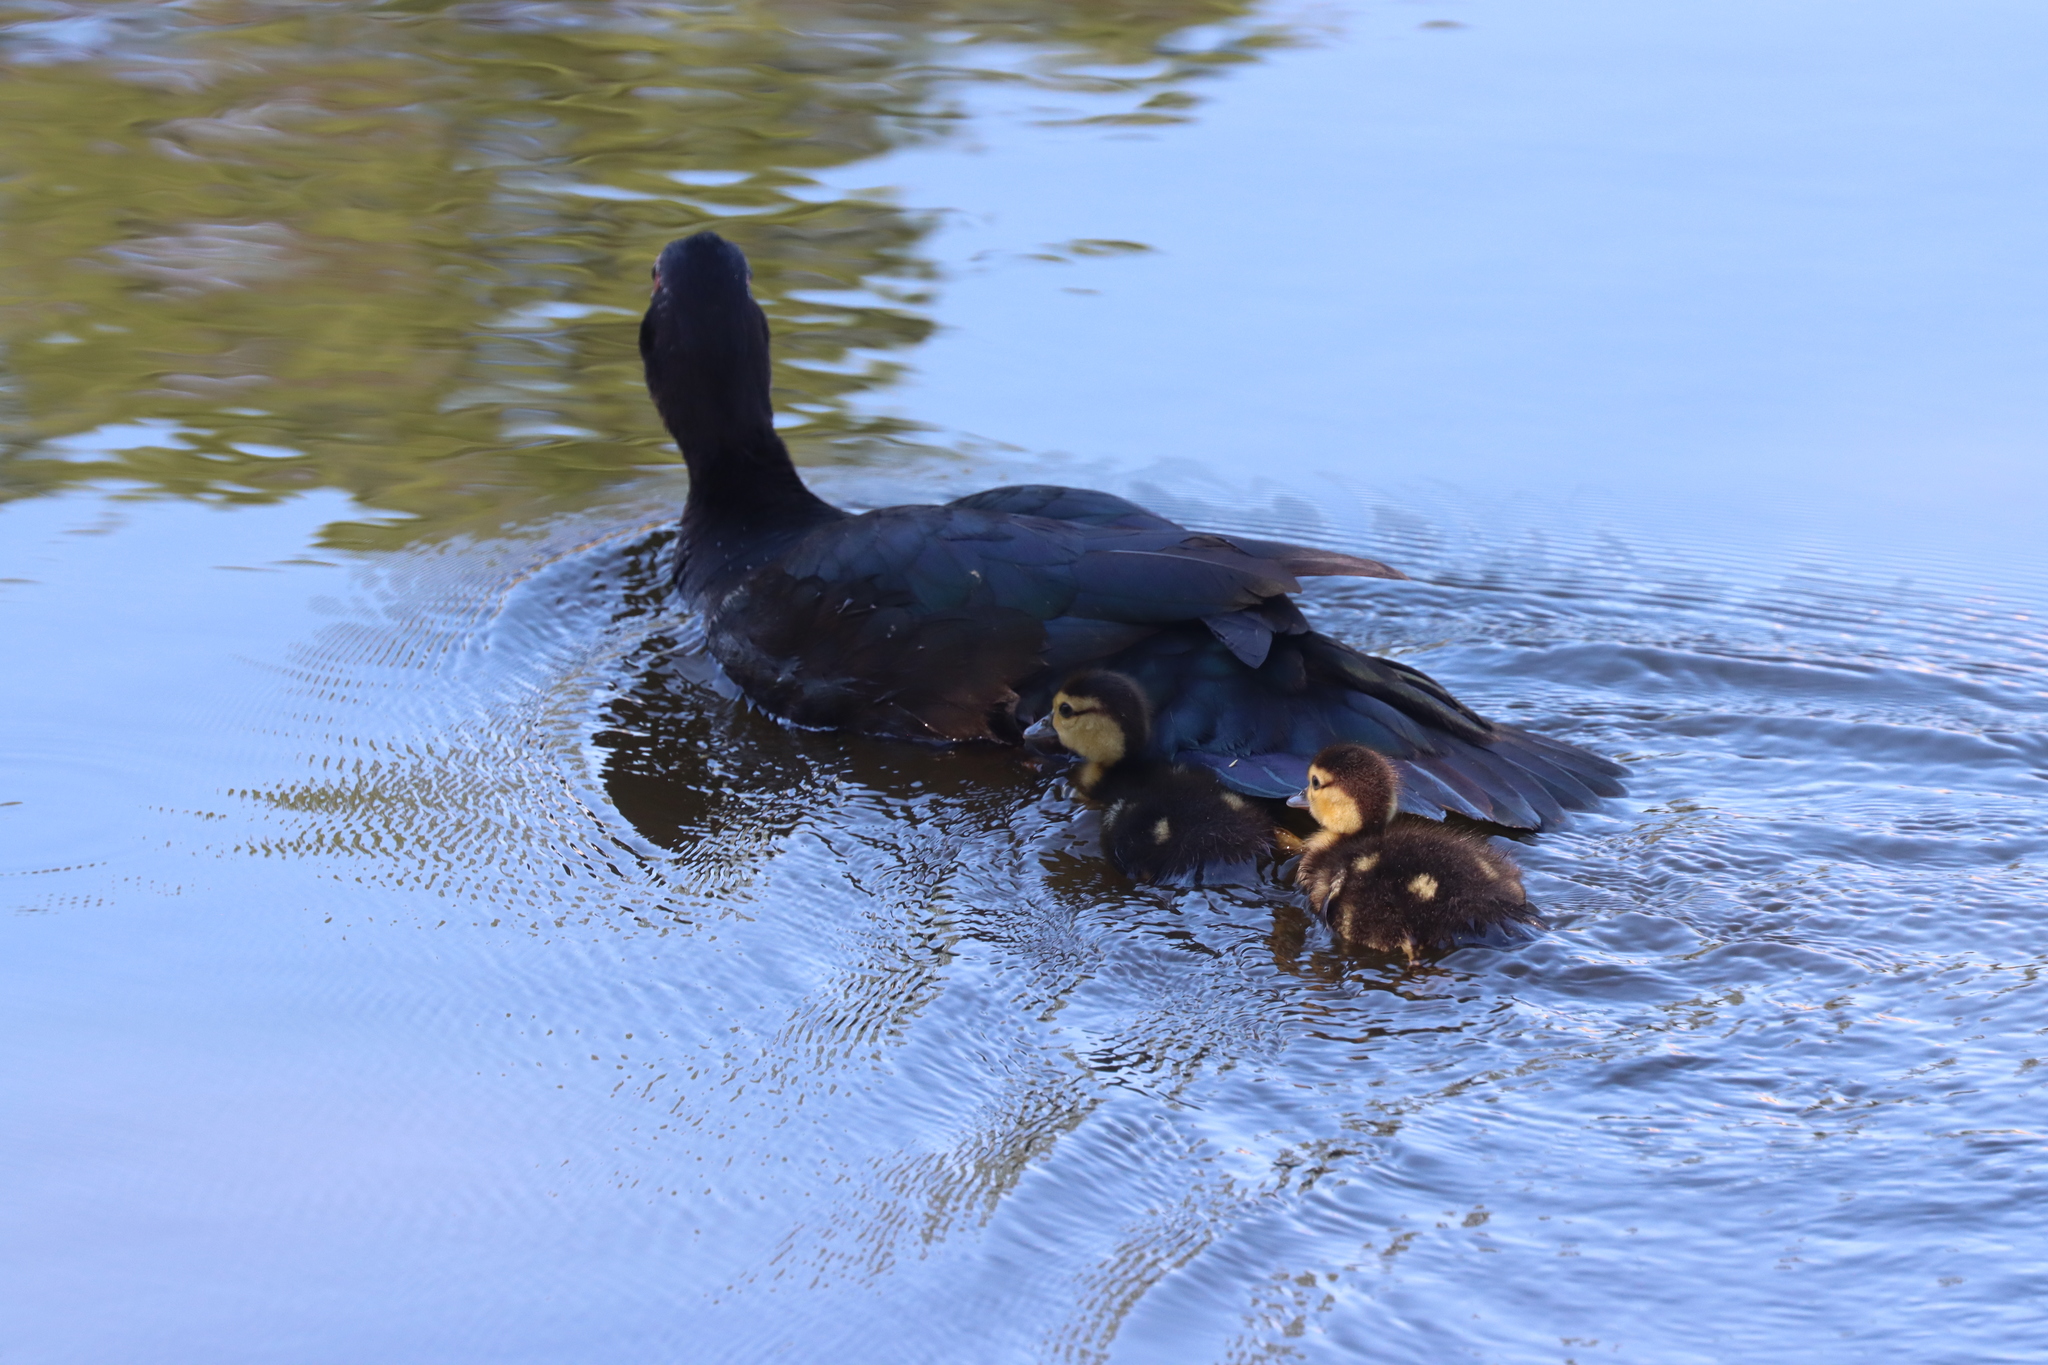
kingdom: Animalia
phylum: Chordata
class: Aves
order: Anseriformes
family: Anatidae
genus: Cairina
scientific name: Cairina moschata
